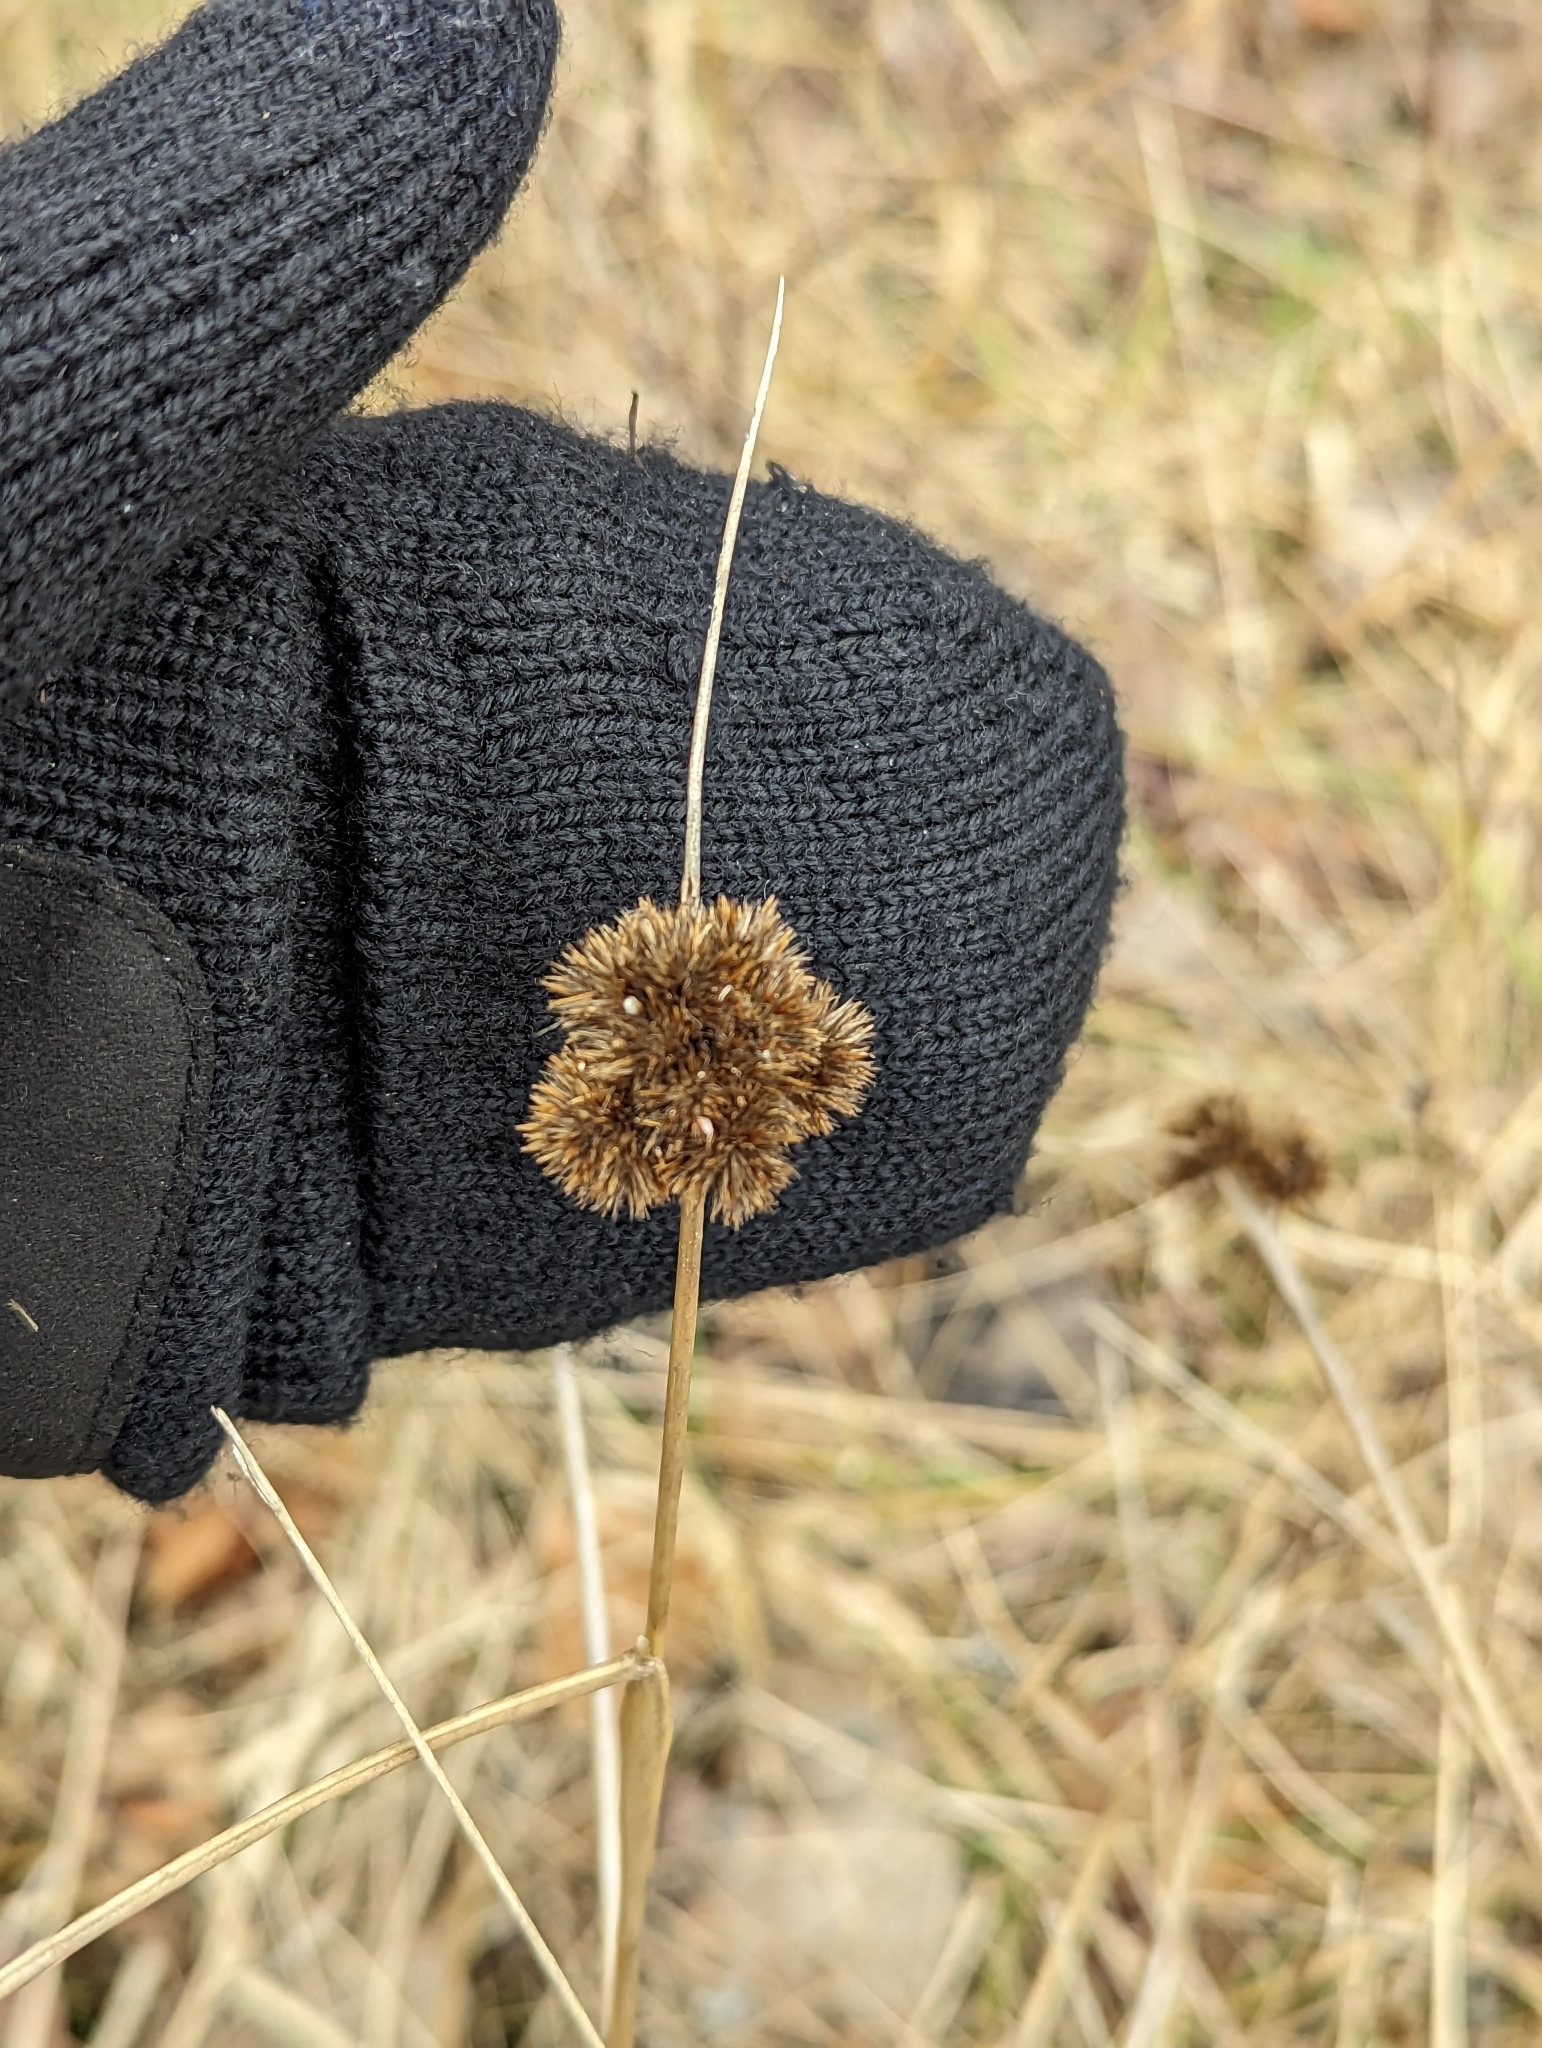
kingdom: Plantae
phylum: Tracheophyta
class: Liliopsida
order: Poales
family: Juncaceae
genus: Juncus
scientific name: Juncus torreyi
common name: Torrey's rush
